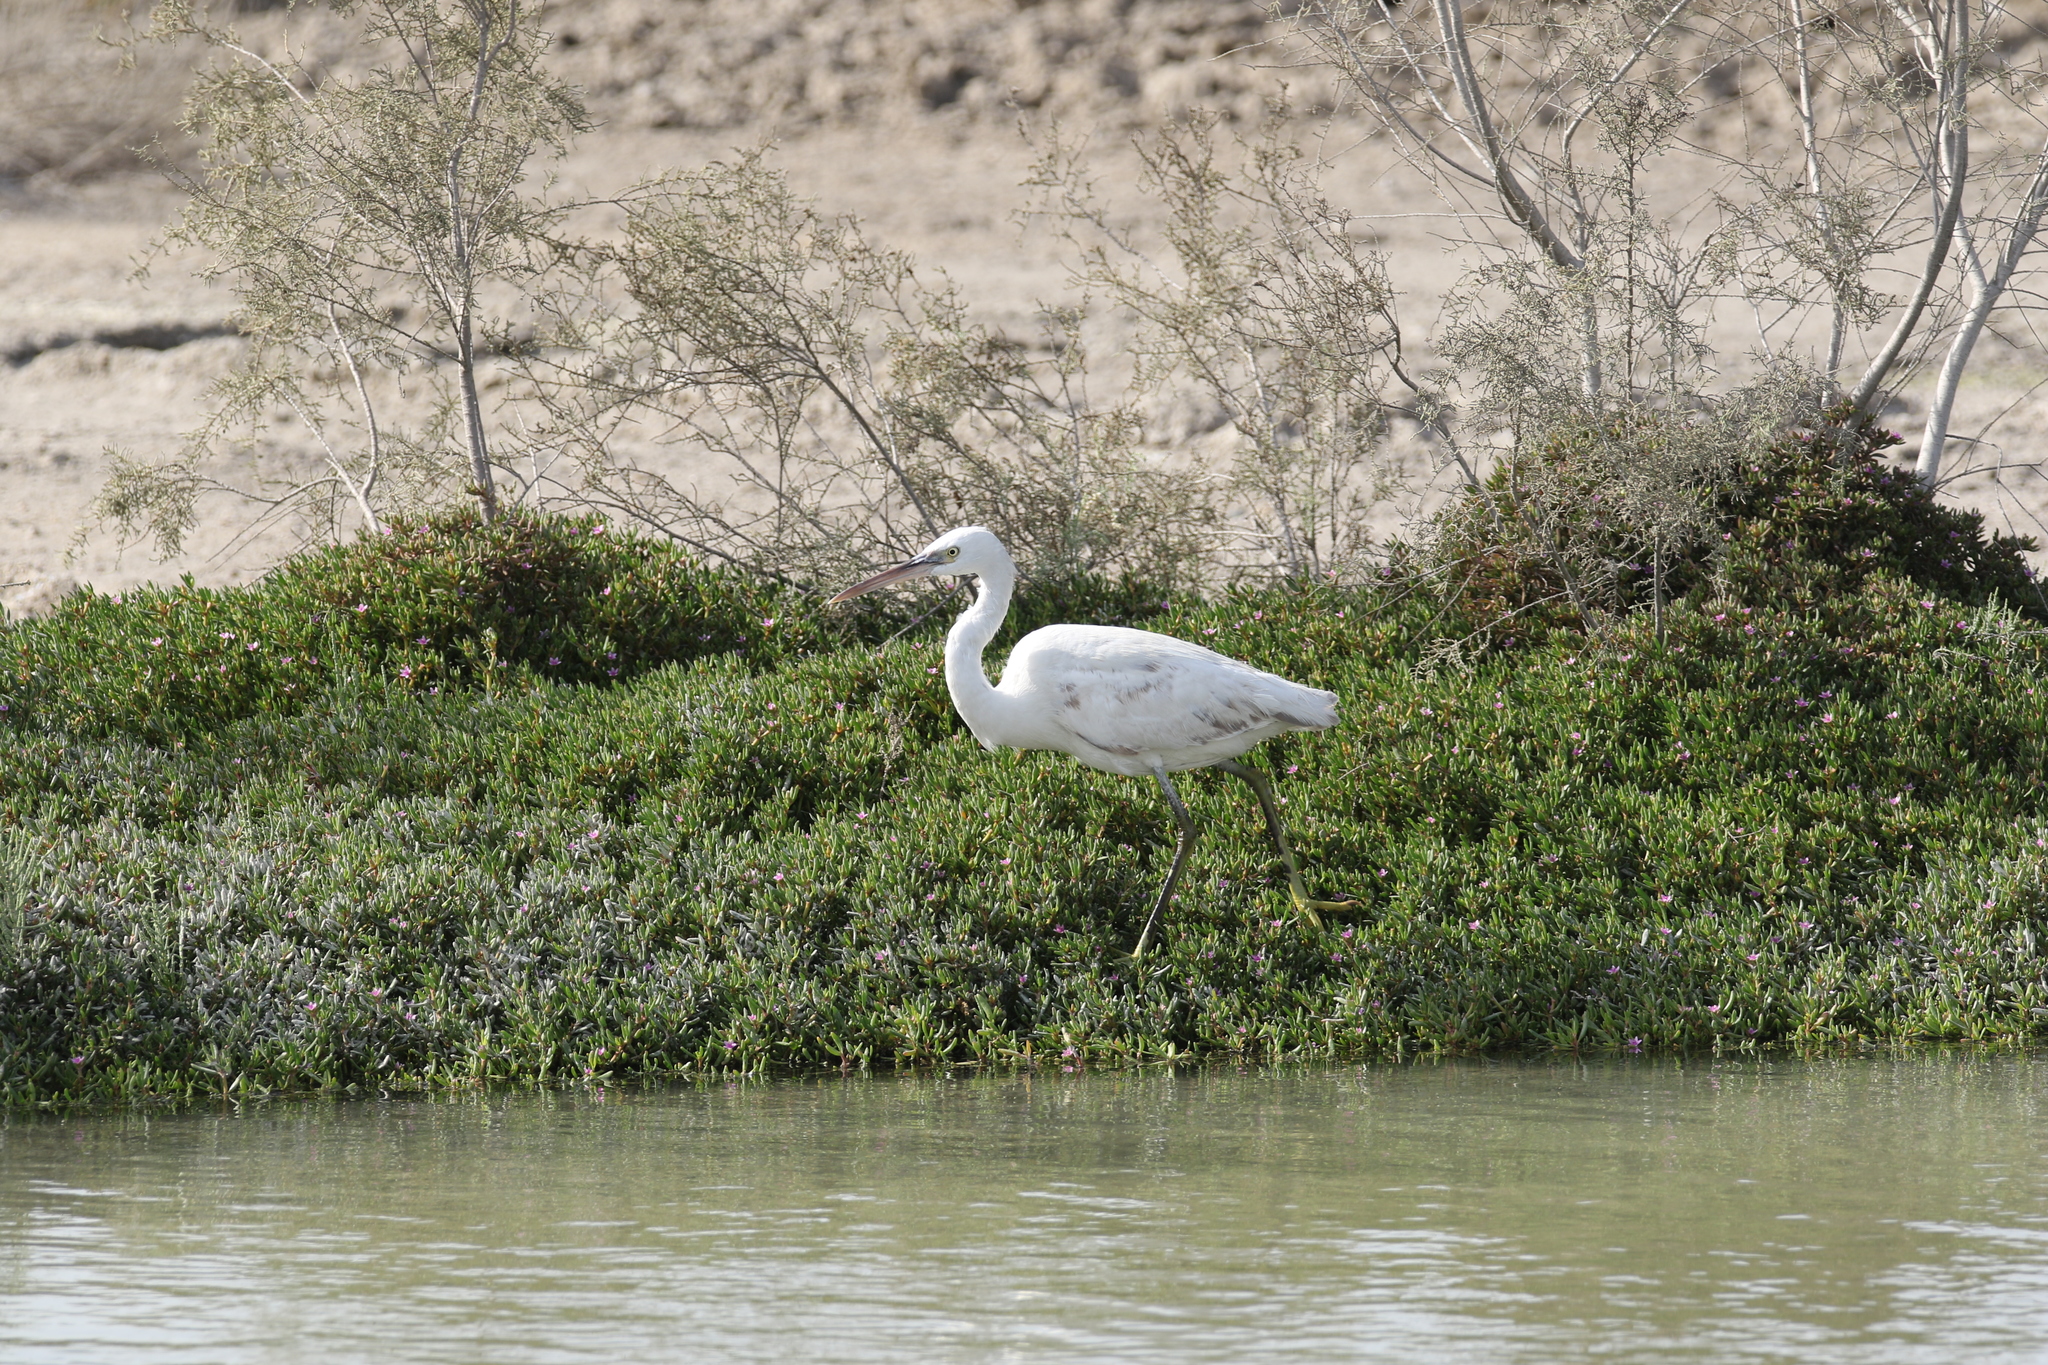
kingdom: Animalia
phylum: Chordata
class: Aves
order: Pelecaniformes
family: Ardeidae
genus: Egretta
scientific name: Egretta gularis
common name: Western reef-heron
